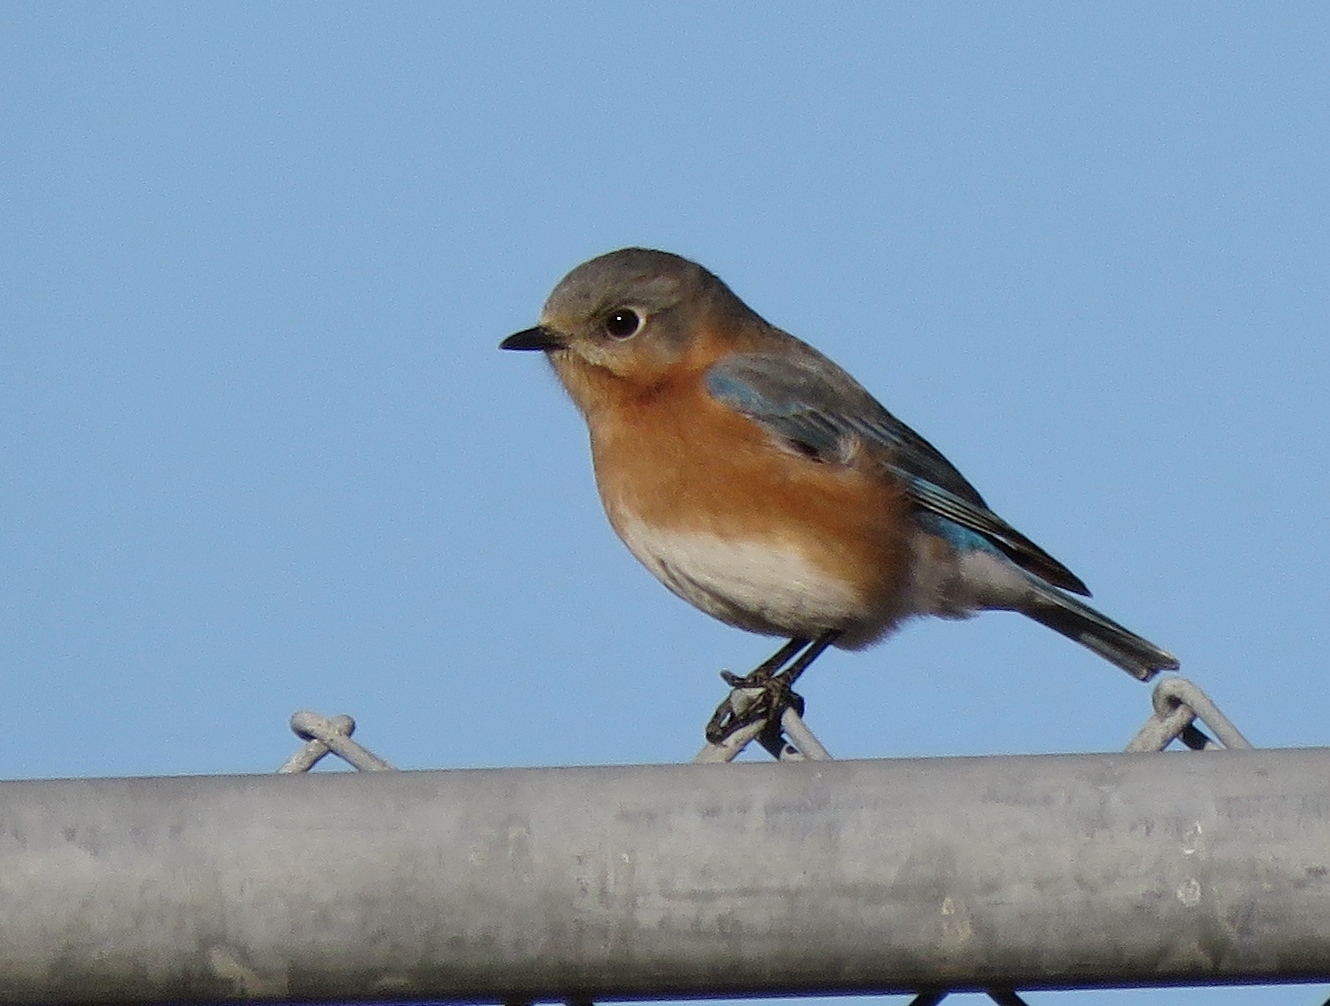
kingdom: Animalia
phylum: Chordata
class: Aves
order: Passeriformes
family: Turdidae
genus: Sialia
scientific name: Sialia sialis
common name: Eastern bluebird
